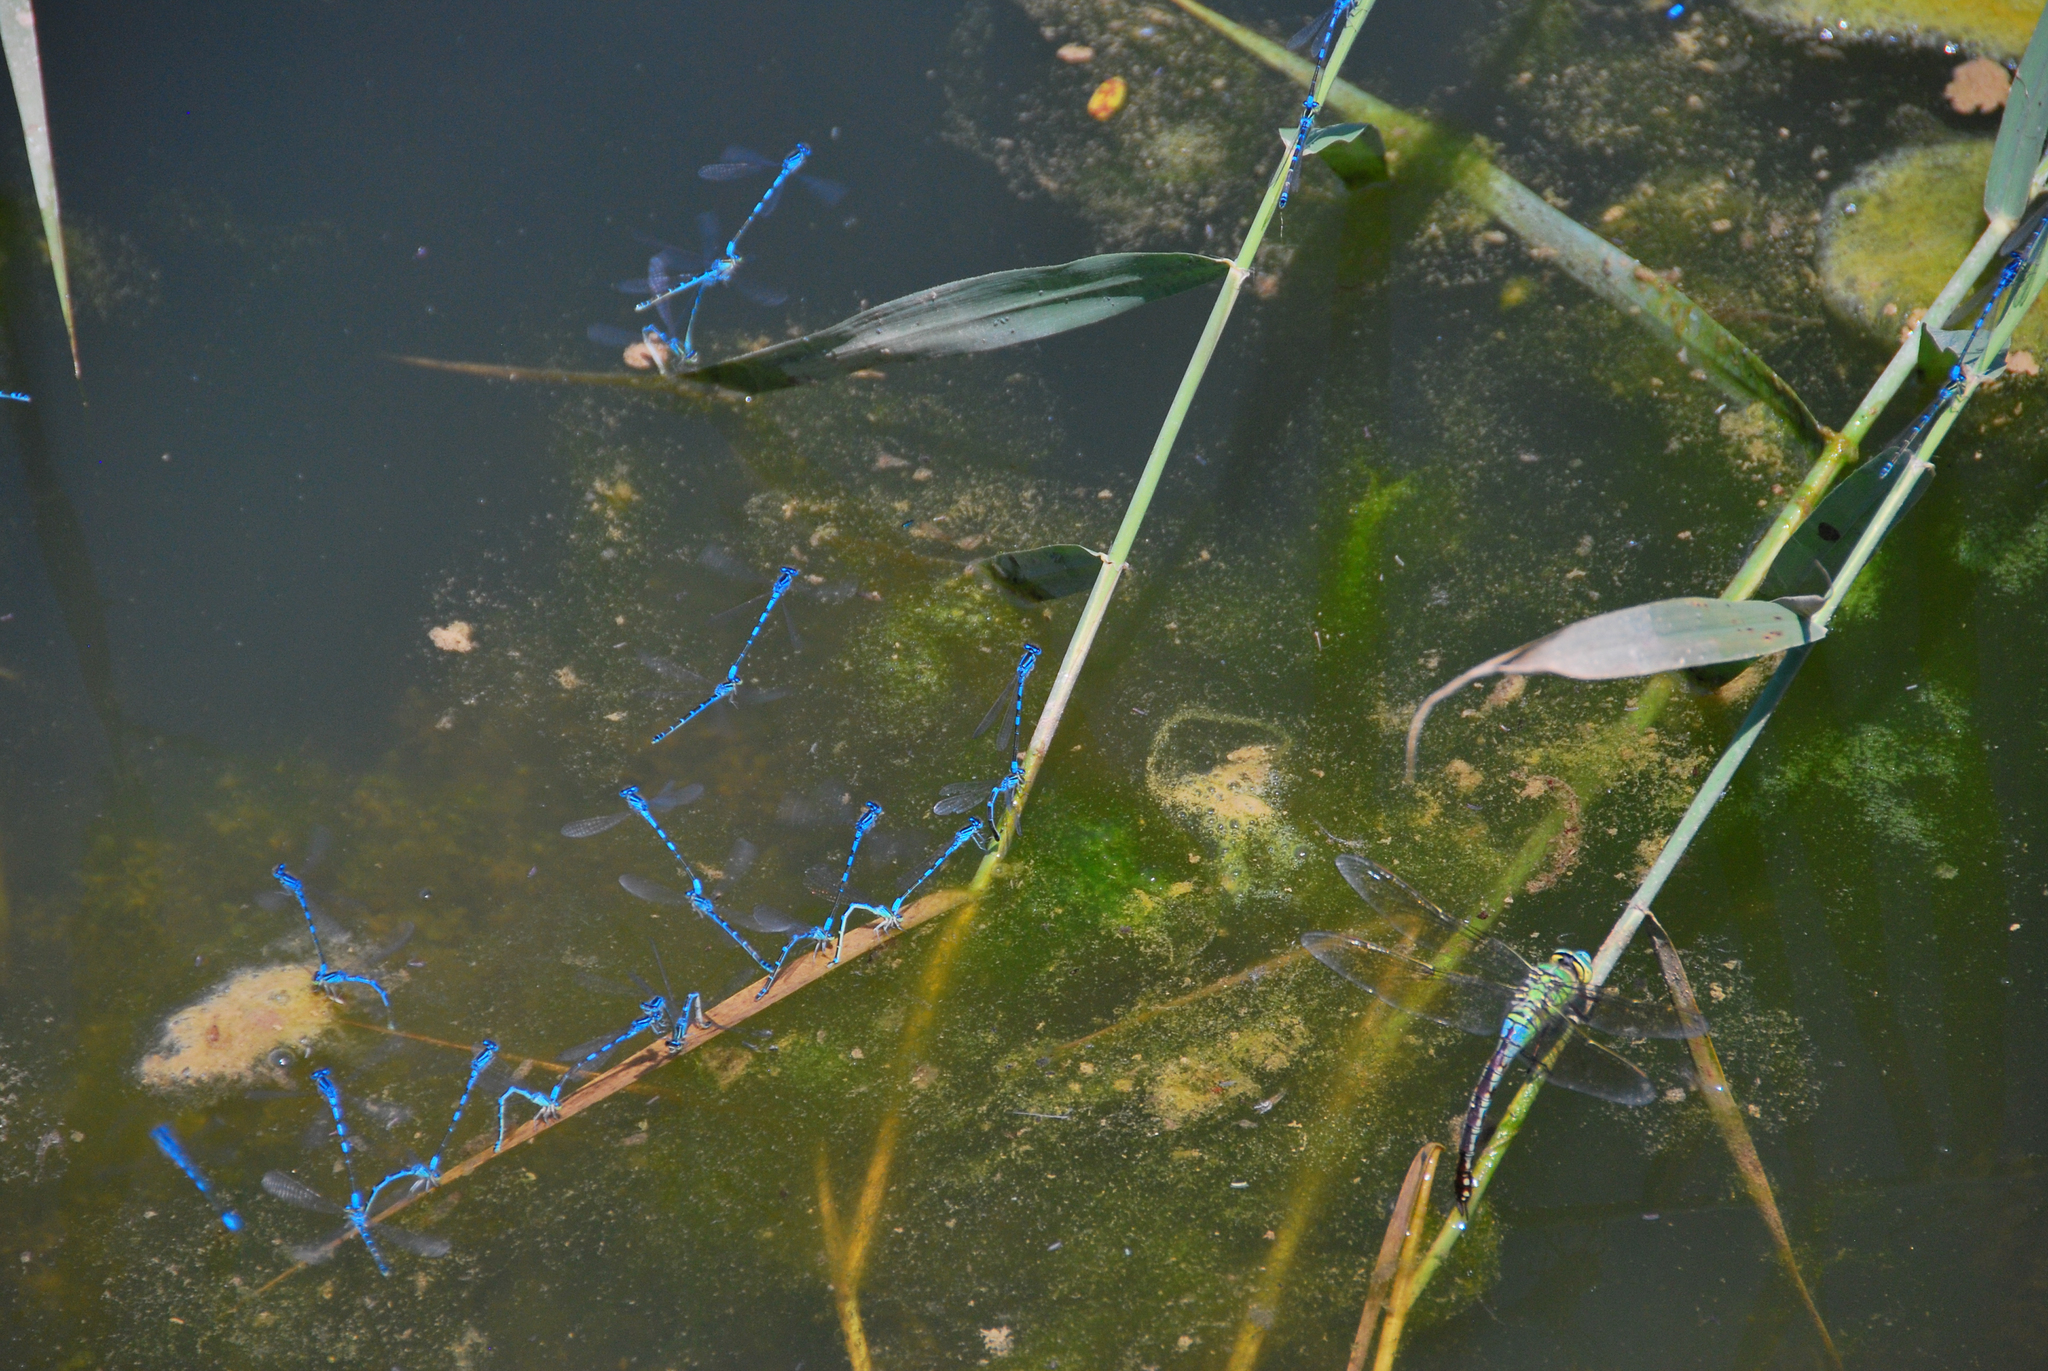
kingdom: Animalia
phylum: Arthropoda
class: Insecta
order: Odonata
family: Coenagrionidae
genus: Coenagrion
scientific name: Coenagrion scitulum
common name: Dainty bluet
